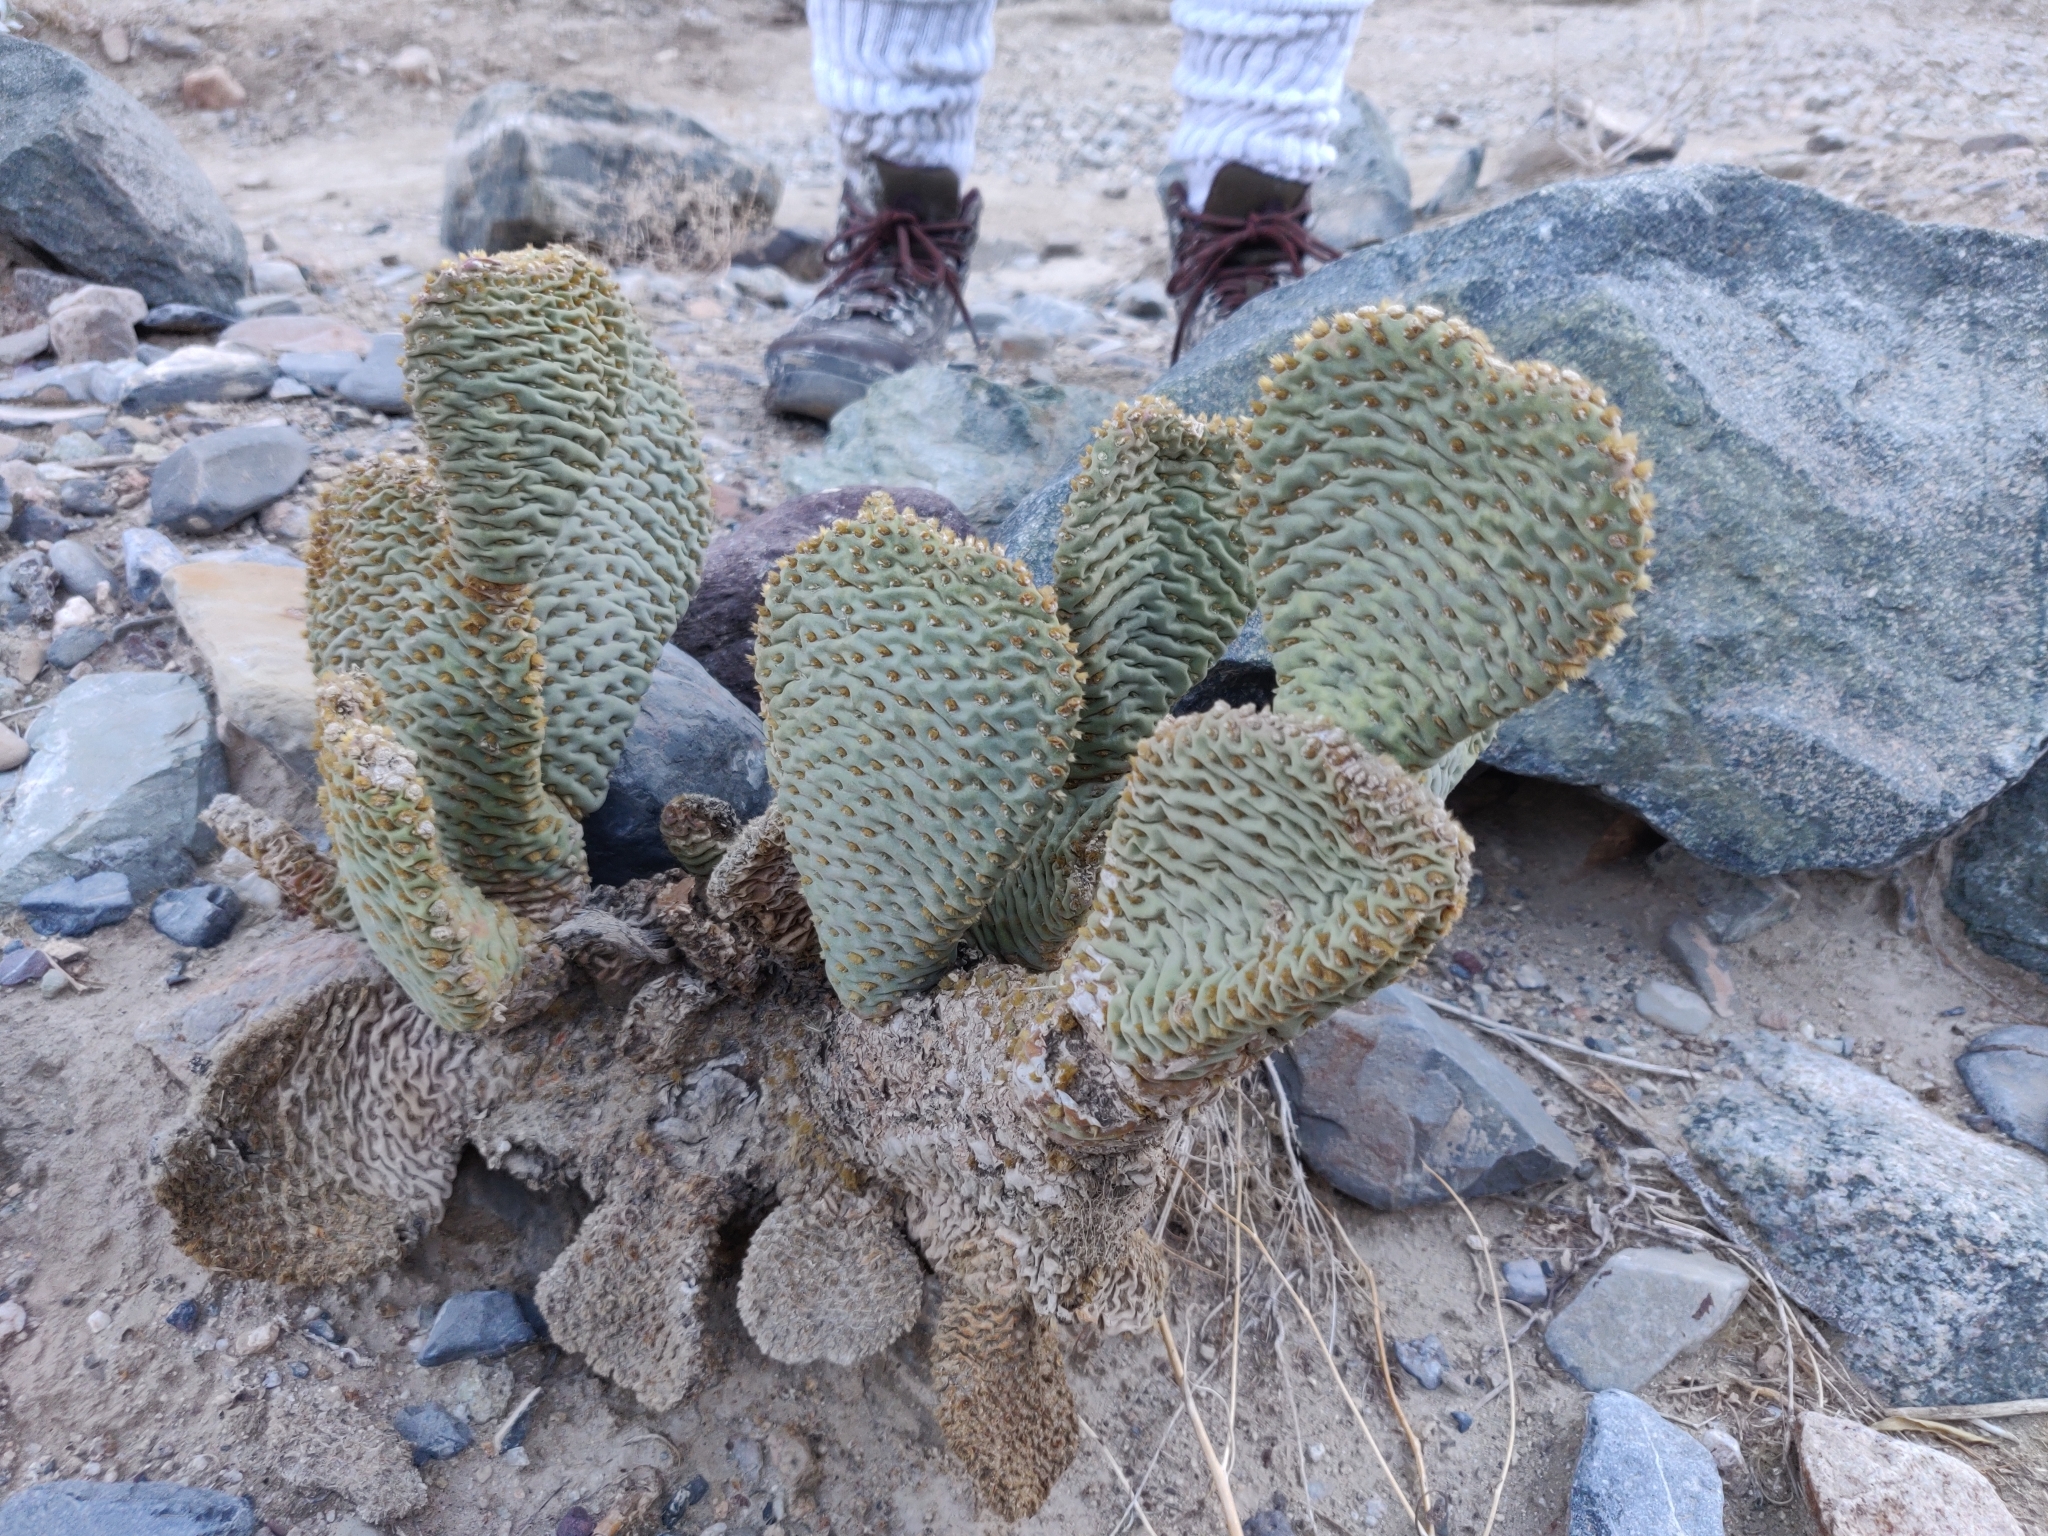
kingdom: Plantae
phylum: Tracheophyta
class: Magnoliopsida
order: Caryophyllales
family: Cactaceae
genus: Opuntia
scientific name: Opuntia basilaris
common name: Beavertail prickly-pear
